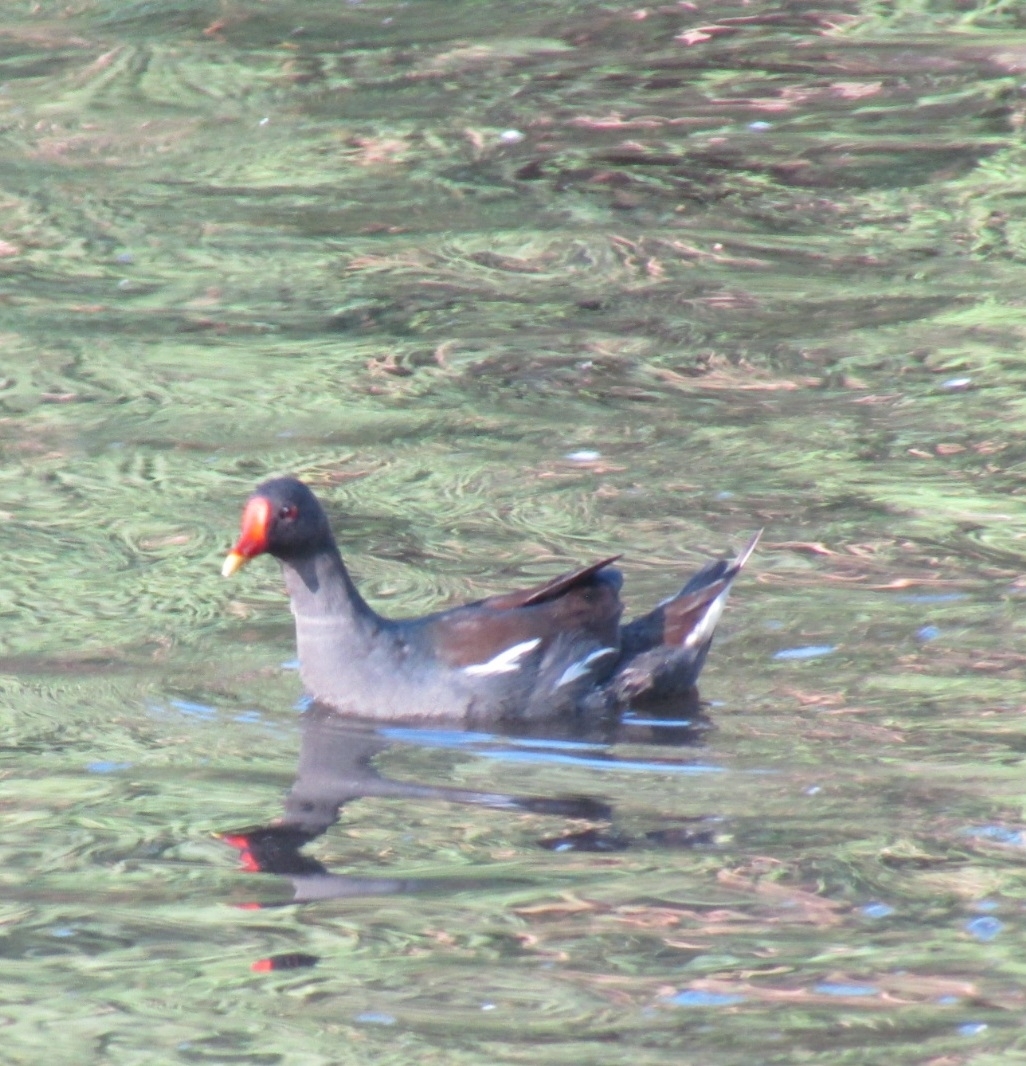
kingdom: Animalia
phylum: Chordata
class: Aves
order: Gruiformes
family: Rallidae
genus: Gallinula
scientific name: Gallinula chloropus
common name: Common moorhen
